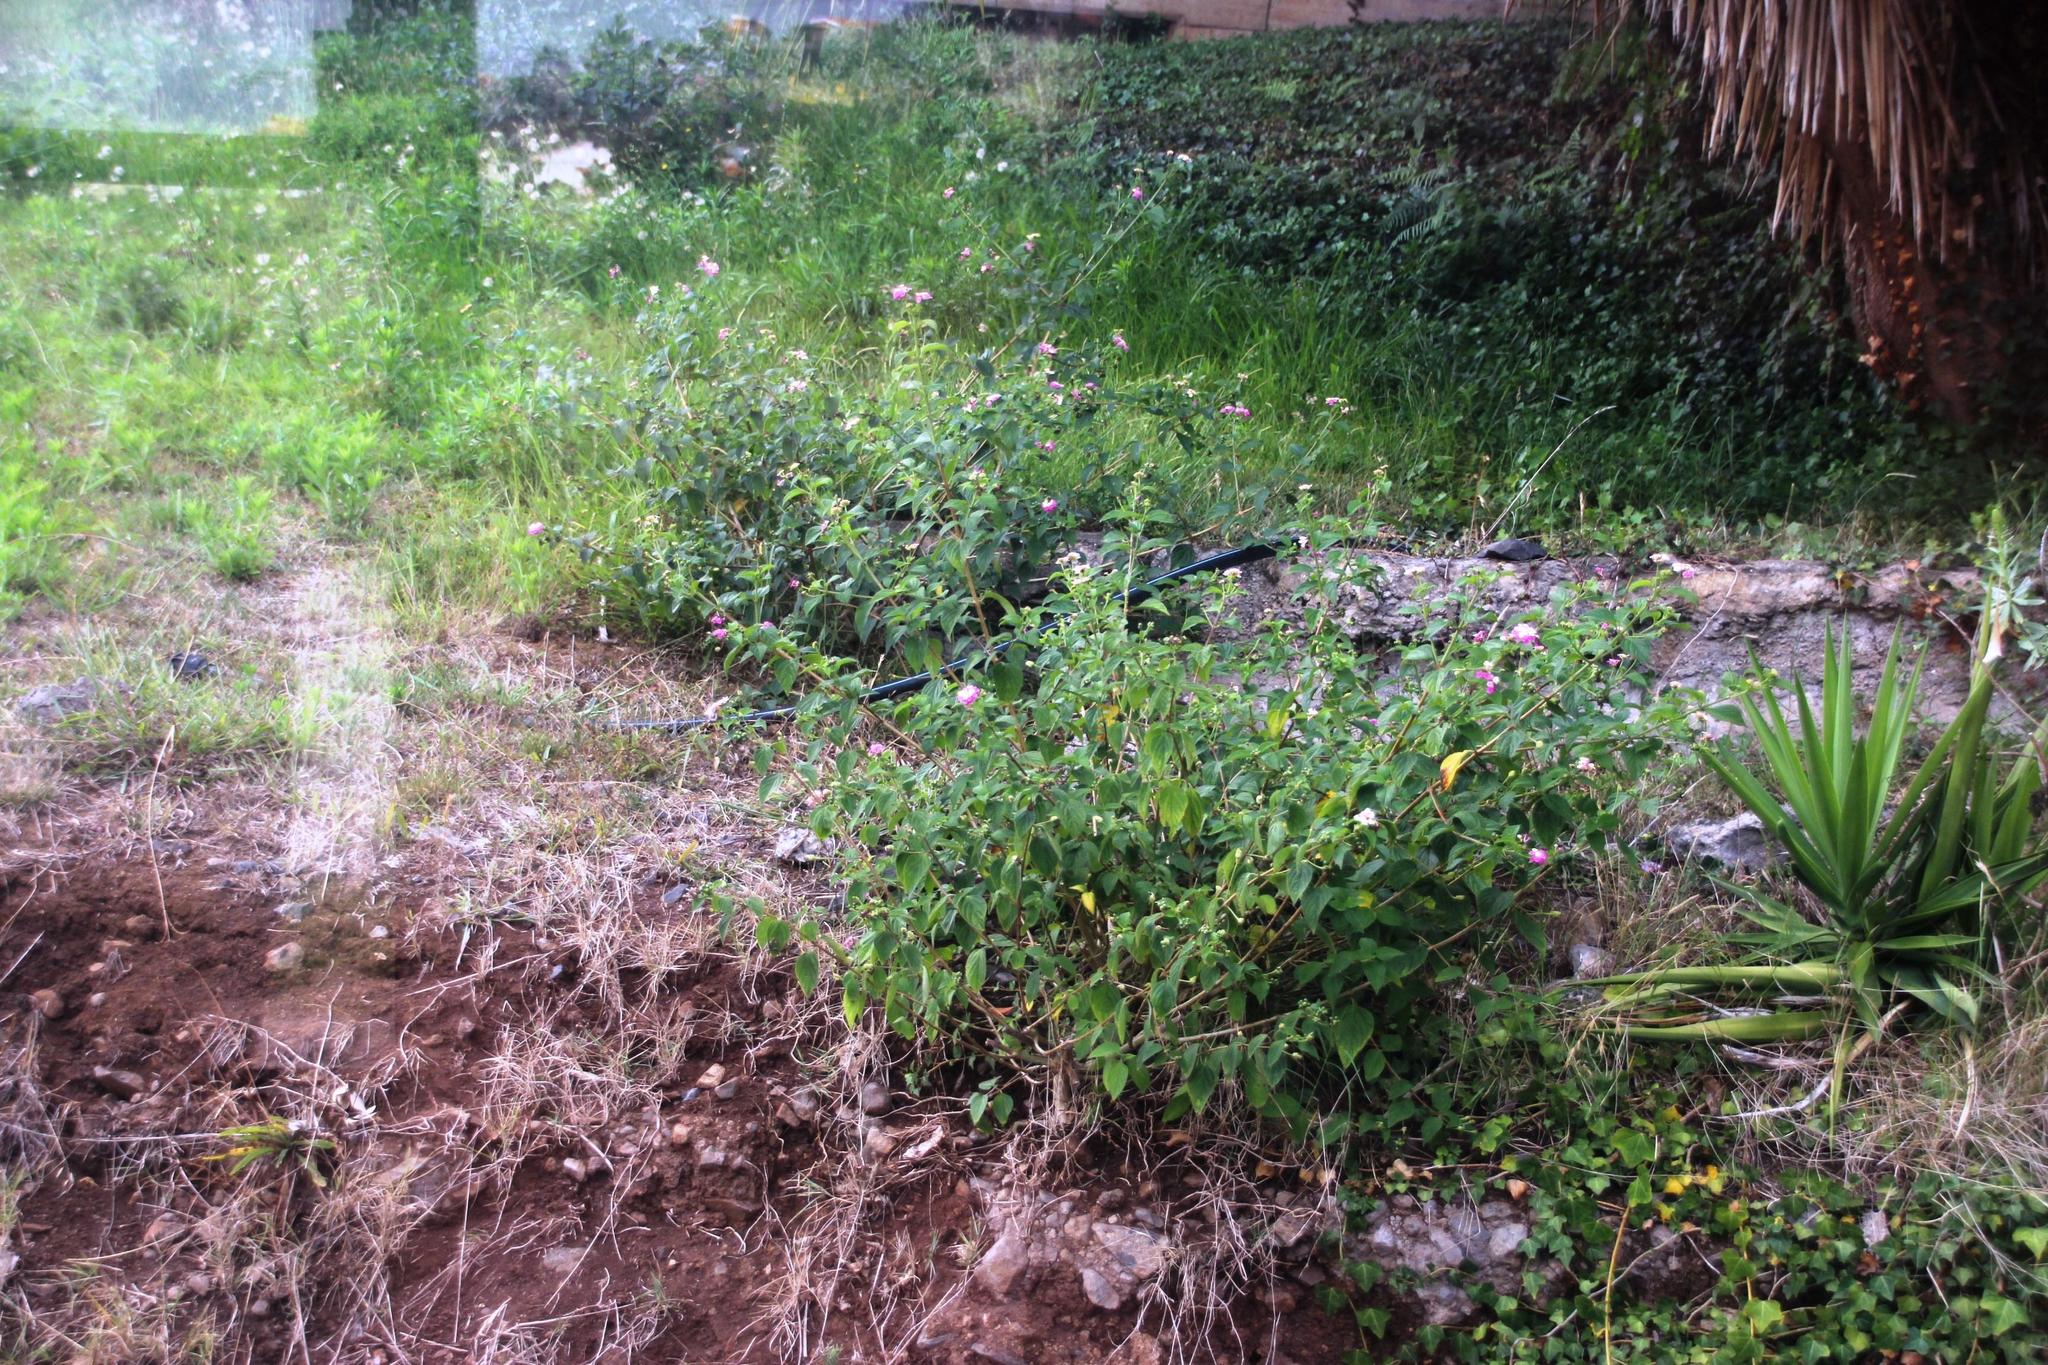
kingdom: Plantae
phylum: Tracheophyta
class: Magnoliopsida
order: Lamiales
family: Verbenaceae
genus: Lantana
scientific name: Lantana camara
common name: Lantana
